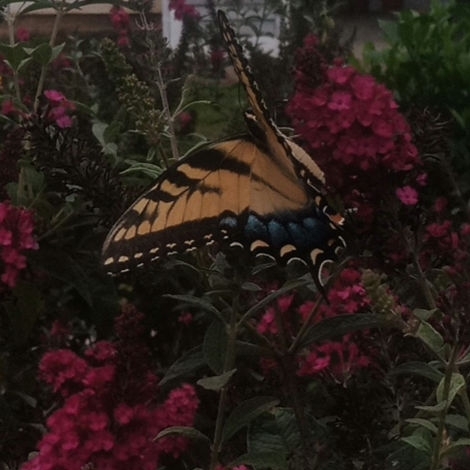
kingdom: Animalia
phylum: Arthropoda
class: Insecta
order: Lepidoptera
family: Papilionidae
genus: Papilio
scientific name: Papilio glaucus
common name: Tiger swallowtail
